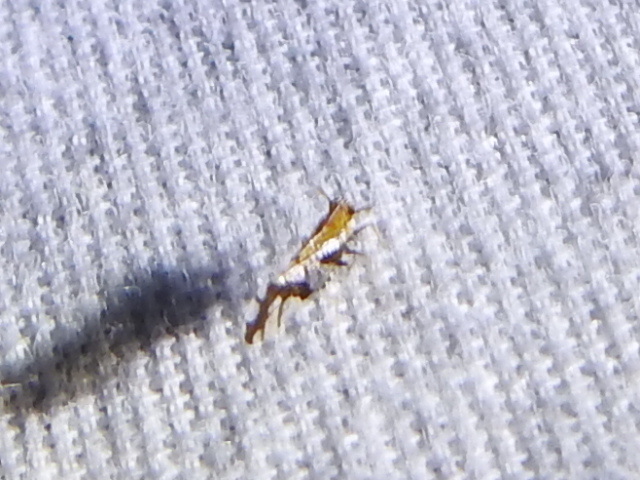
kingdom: Animalia
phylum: Arthropoda
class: Insecta
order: Hemiptera
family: Delphacidae
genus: Liburniella
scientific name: Liburniella ornata
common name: Ornate planthopper
